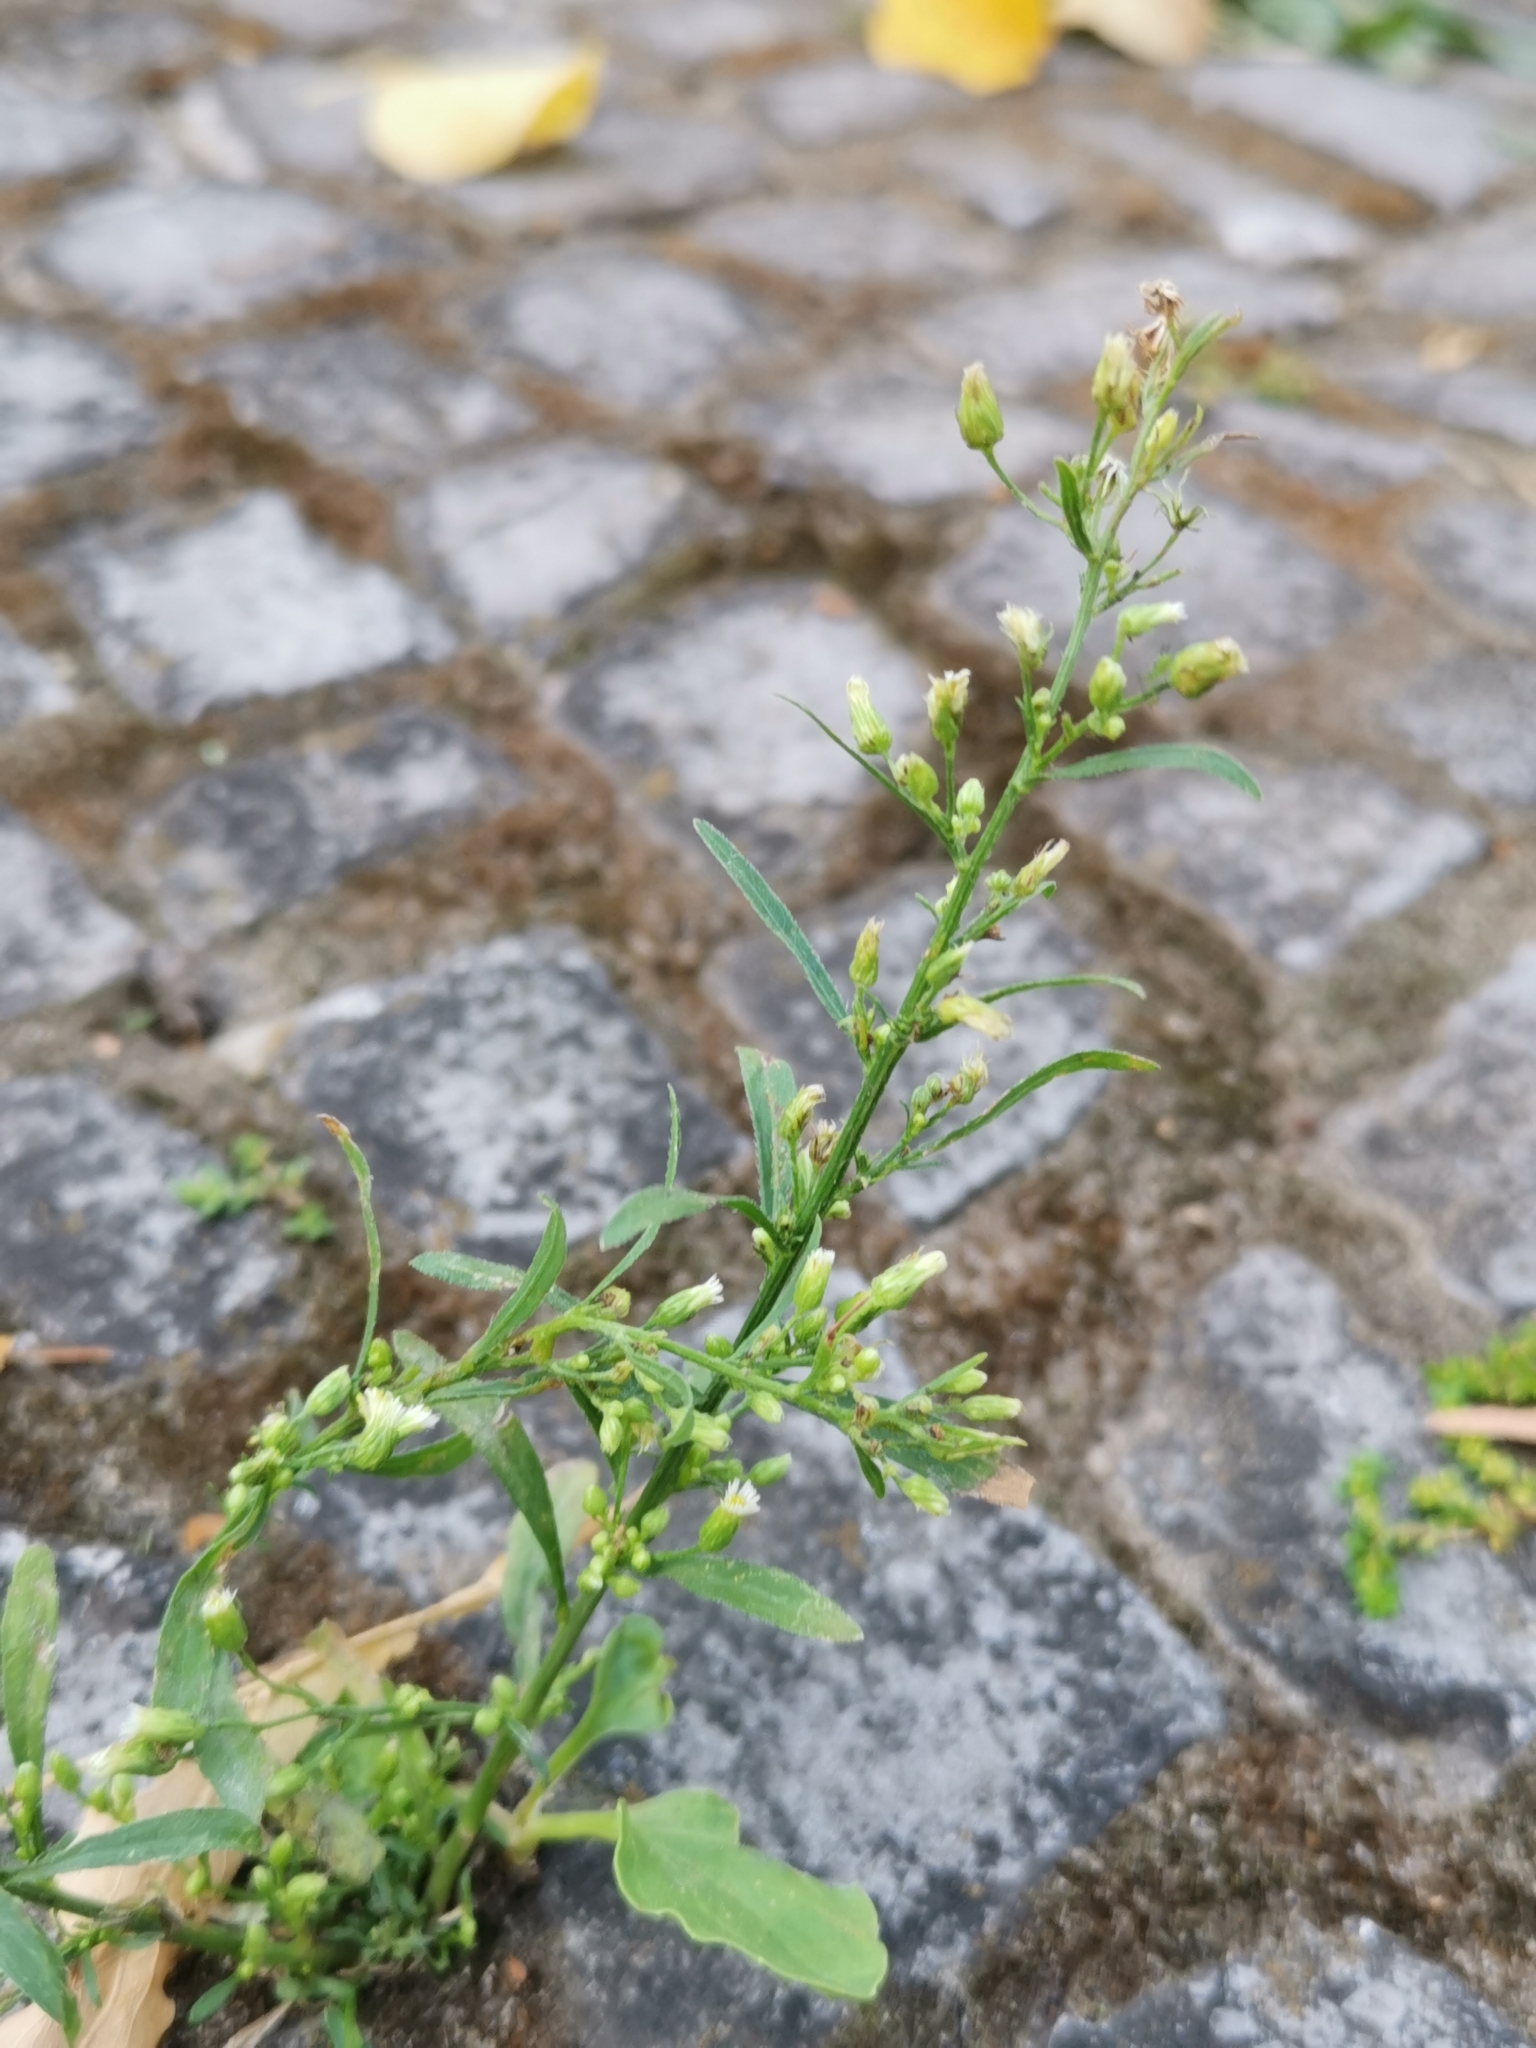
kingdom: Plantae
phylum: Tracheophyta
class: Magnoliopsida
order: Asterales
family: Asteraceae
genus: Erigeron
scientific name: Erigeron canadensis
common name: Canadian fleabane
